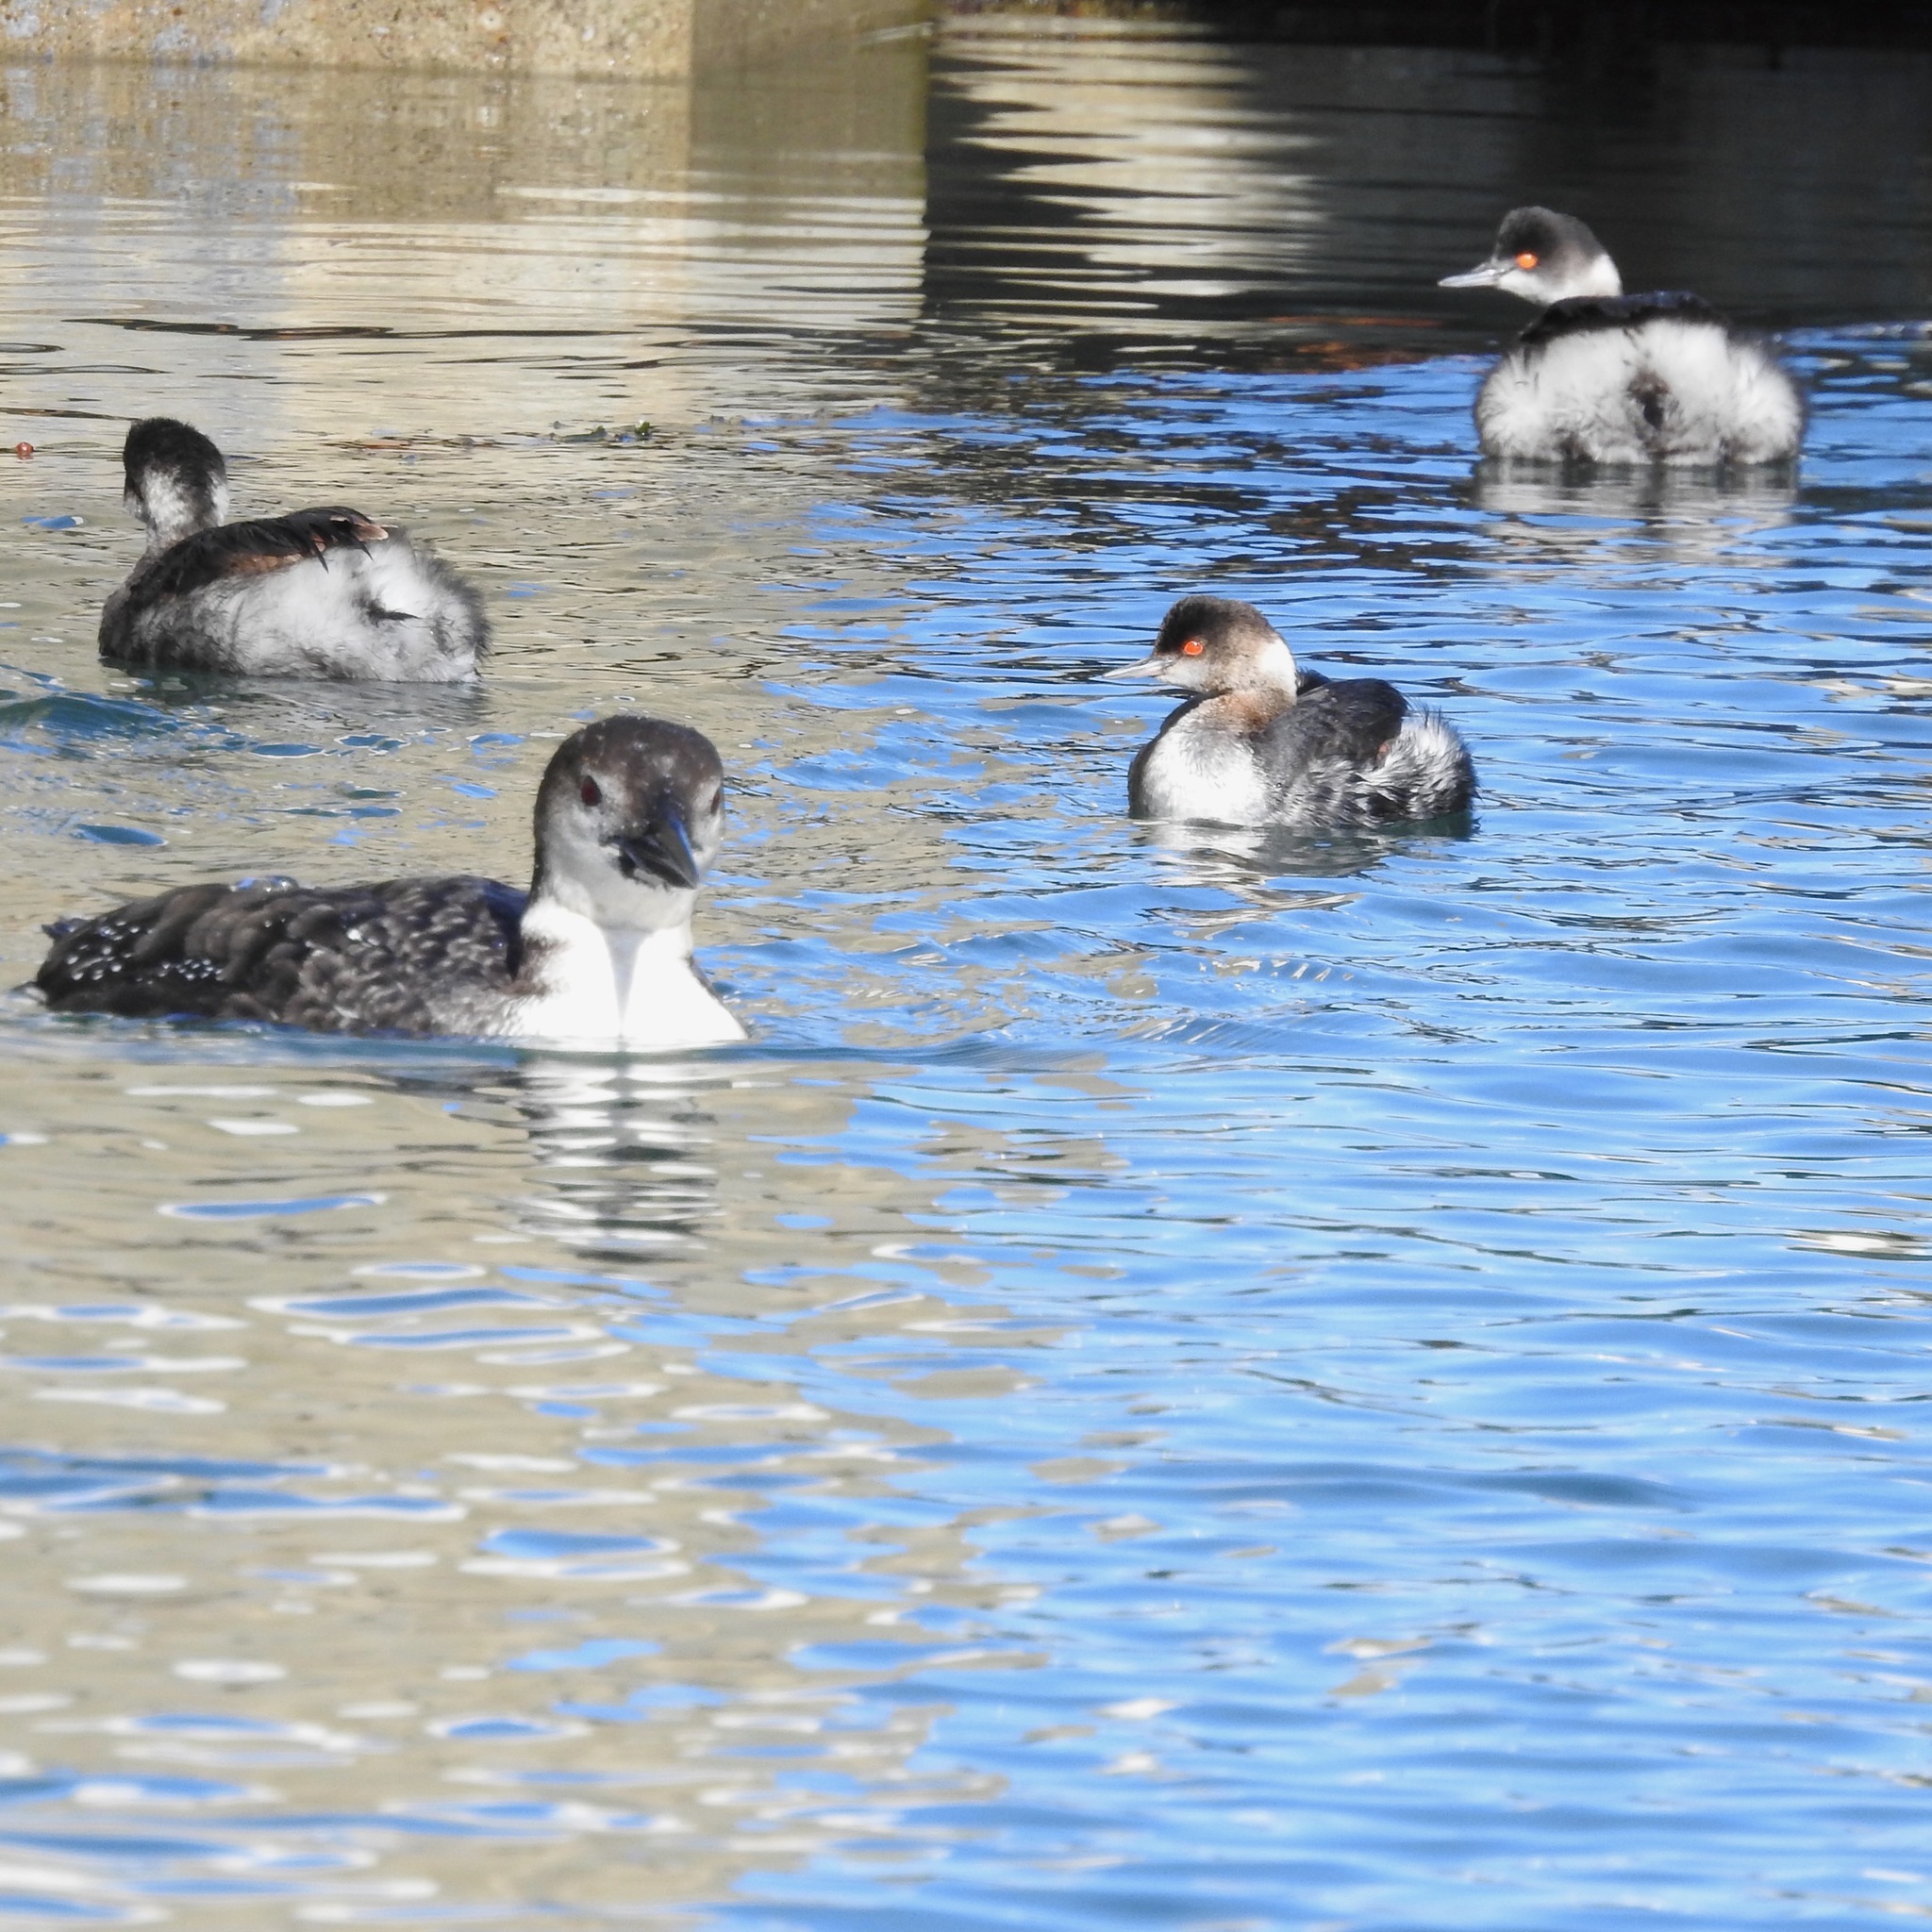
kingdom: Animalia
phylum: Chordata
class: Aves
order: Gaviiformes
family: Gaviidae
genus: Gavia
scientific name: Gavia immer
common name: Common loon
